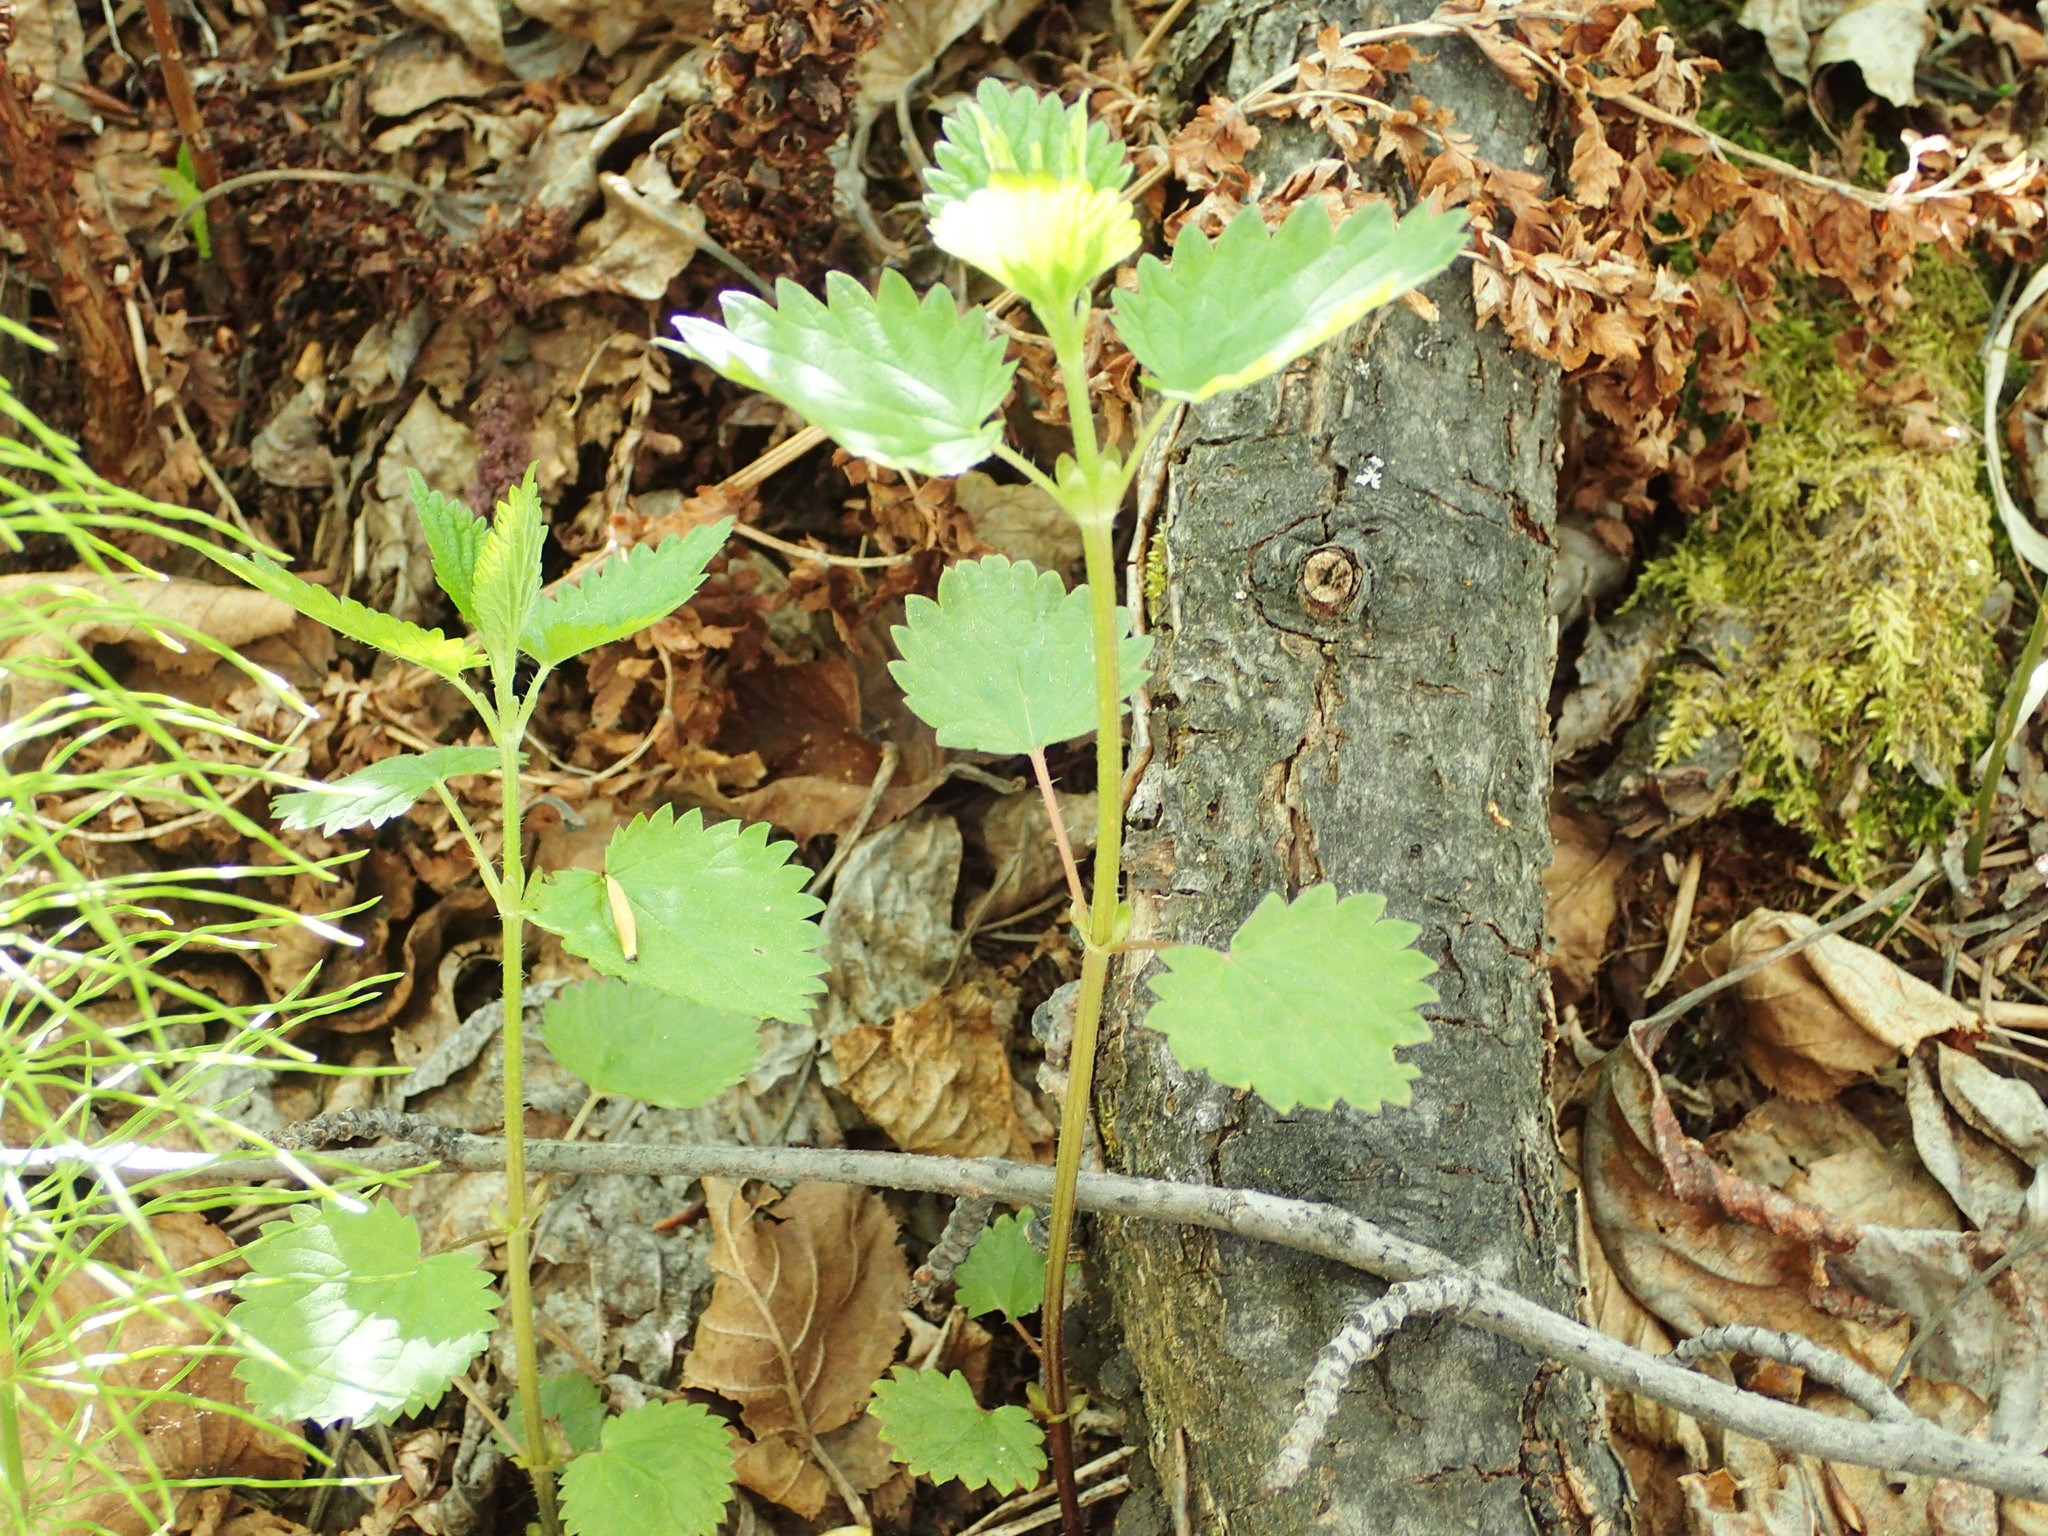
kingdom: Plantae
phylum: Tracheophyta
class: Magnoliopsida
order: Rosales
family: Urticaceae
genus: Urtica
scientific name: Urtica dioica
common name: Common nettle
